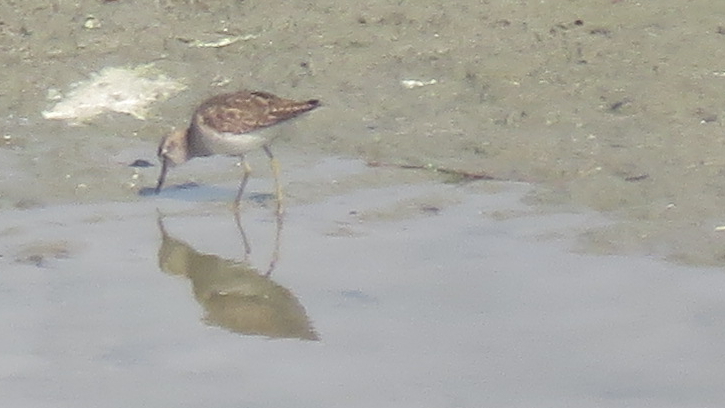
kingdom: Animalia
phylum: Chordata
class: Aves
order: Charadriiformes
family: Scolopacidae
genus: Tringa
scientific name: Tringa glareola
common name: Wood sandpiper
